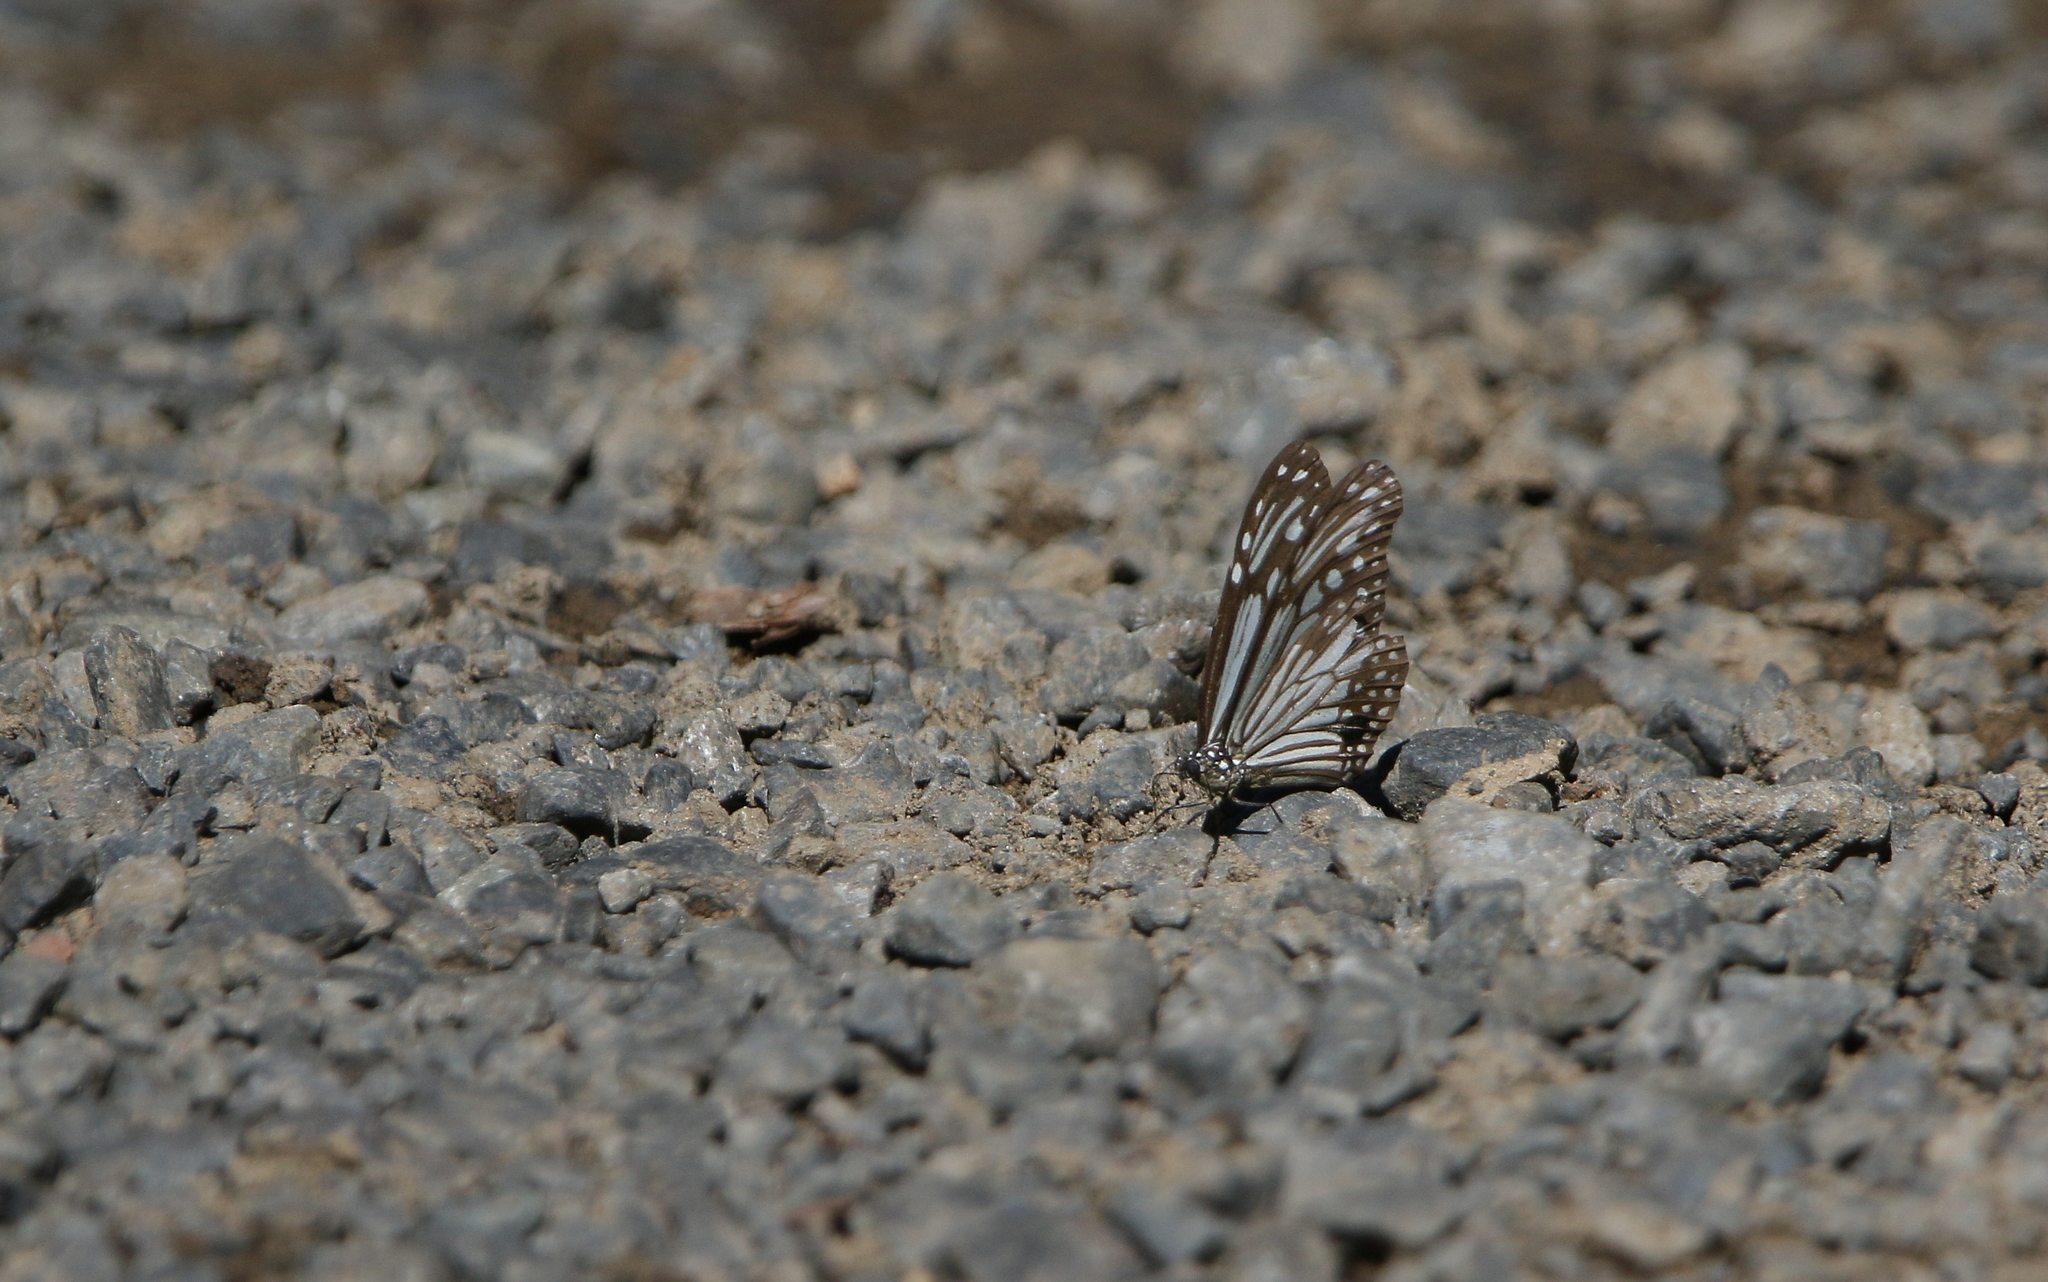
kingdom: Animalia
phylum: Arthropoda
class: Insecta
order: Lepidoptera
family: Nymphalidae
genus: Parantica
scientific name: Parantica aglea
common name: Glassy tiger
